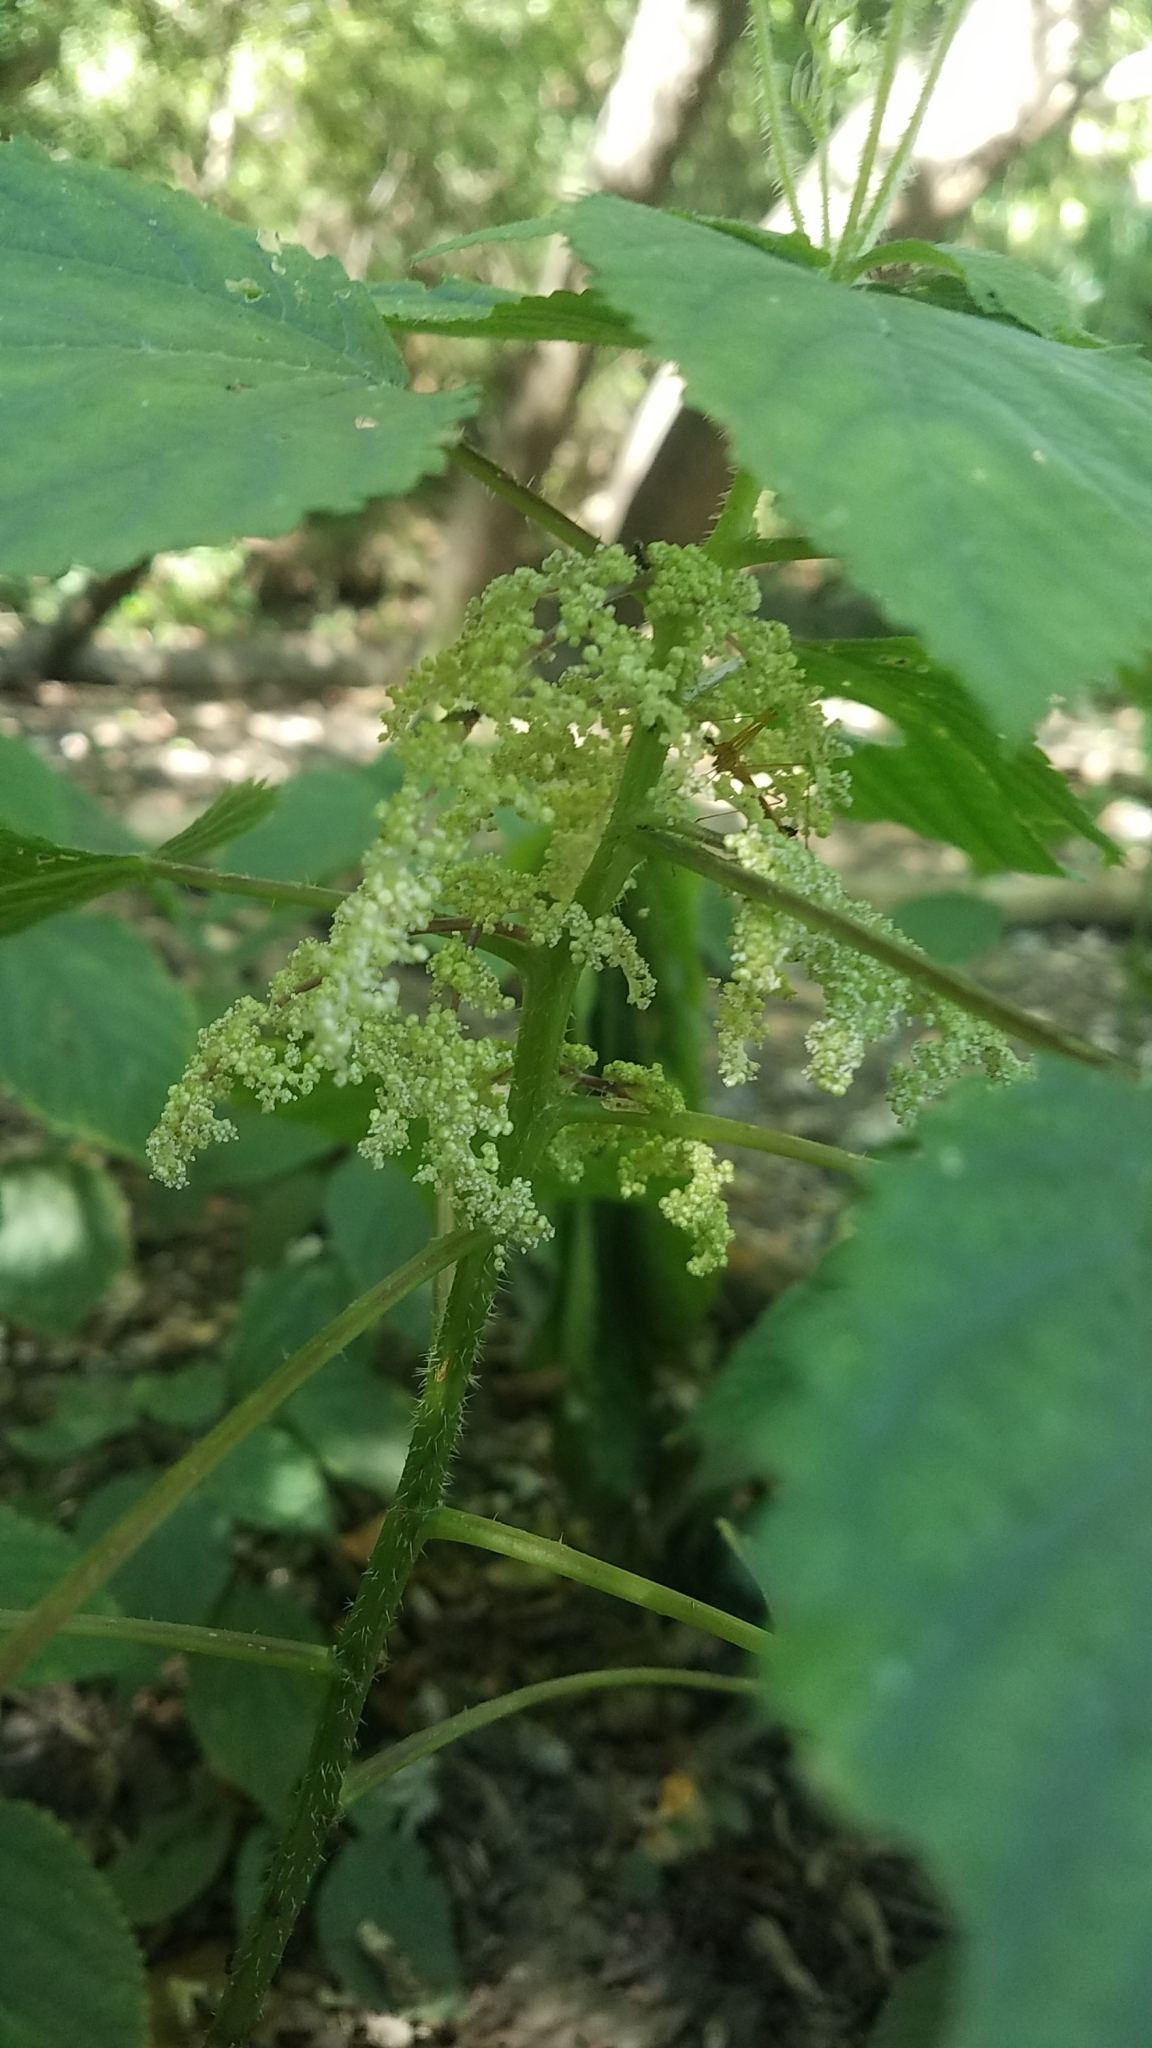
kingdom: Plantae
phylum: Tracheophyta
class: Magnoliopsida
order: Rosales
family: Urticaceae
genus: Laportea
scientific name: Laportea canadensis
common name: Canada nettle
